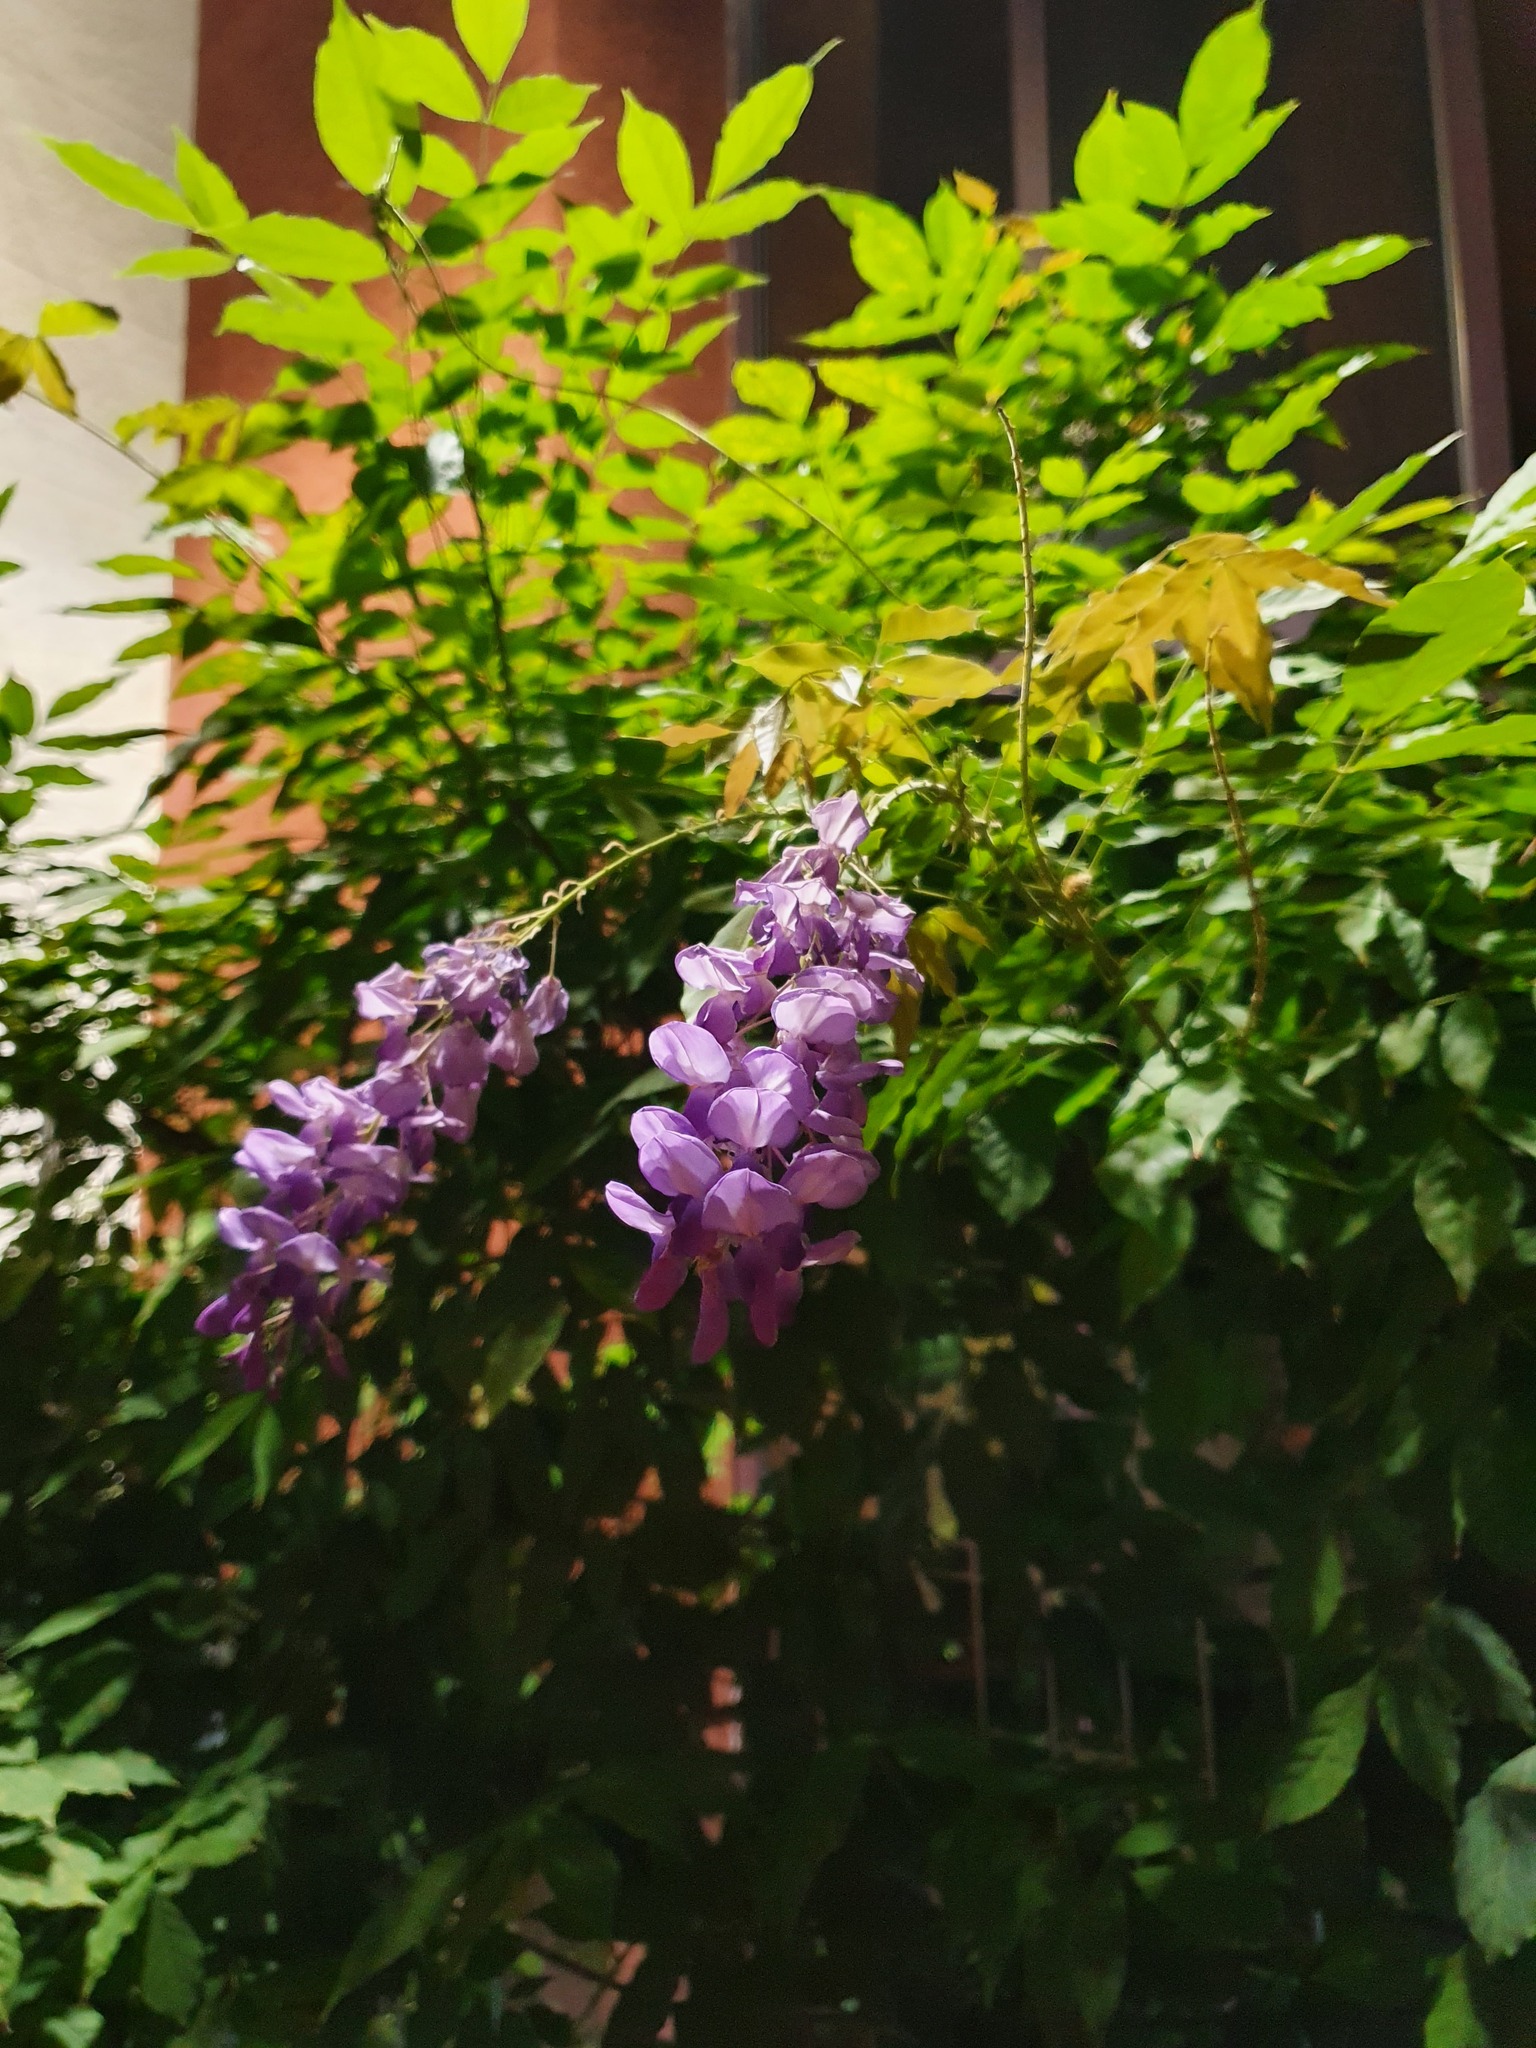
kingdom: Plantae
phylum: Tracheophyta
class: Magnoliopsida
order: Fabales
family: Fabaceae
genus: Wisteria
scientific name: Wisteria sinensis
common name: Chinese wisteria
